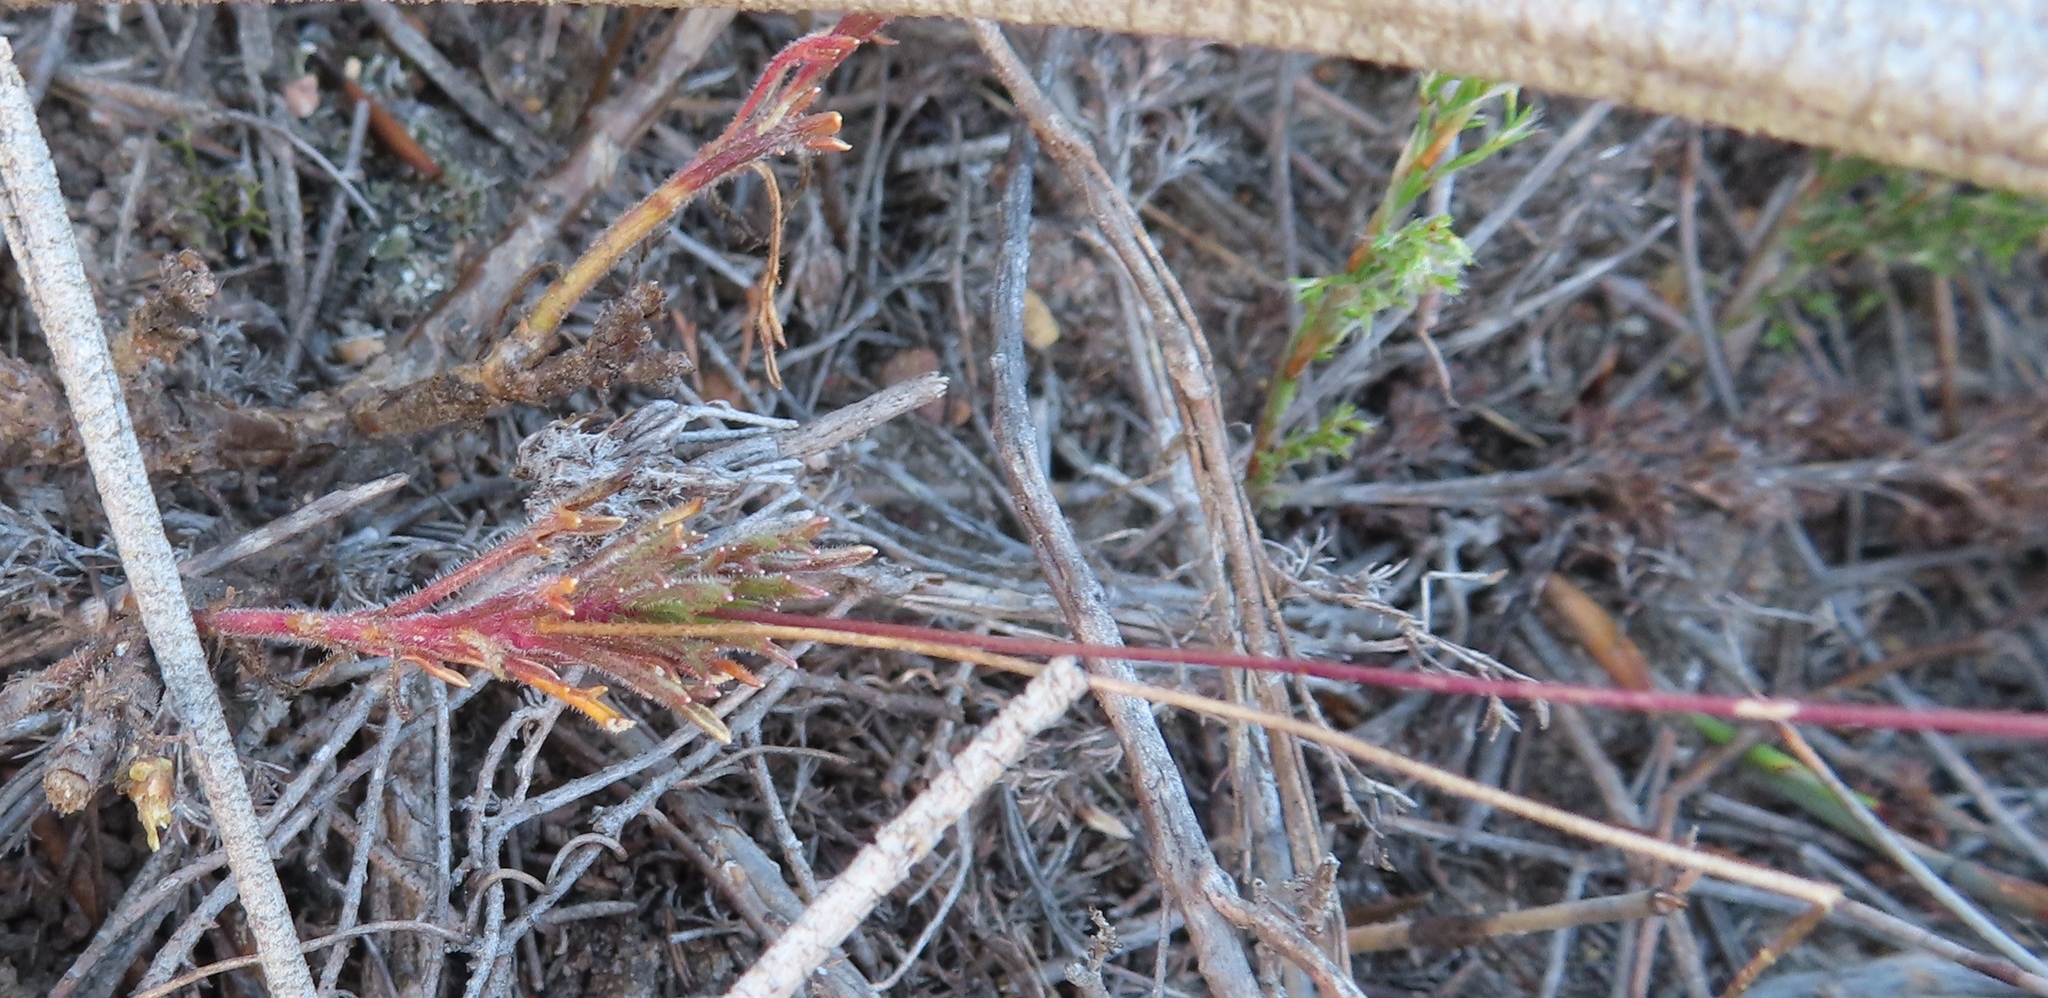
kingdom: Plantae
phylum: Tracheophyta
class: Magnoliopsida
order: Myrtales
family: Myrtaceae
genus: Leptospermum
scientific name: Leptospermum laevigatum
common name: Australian teatree
